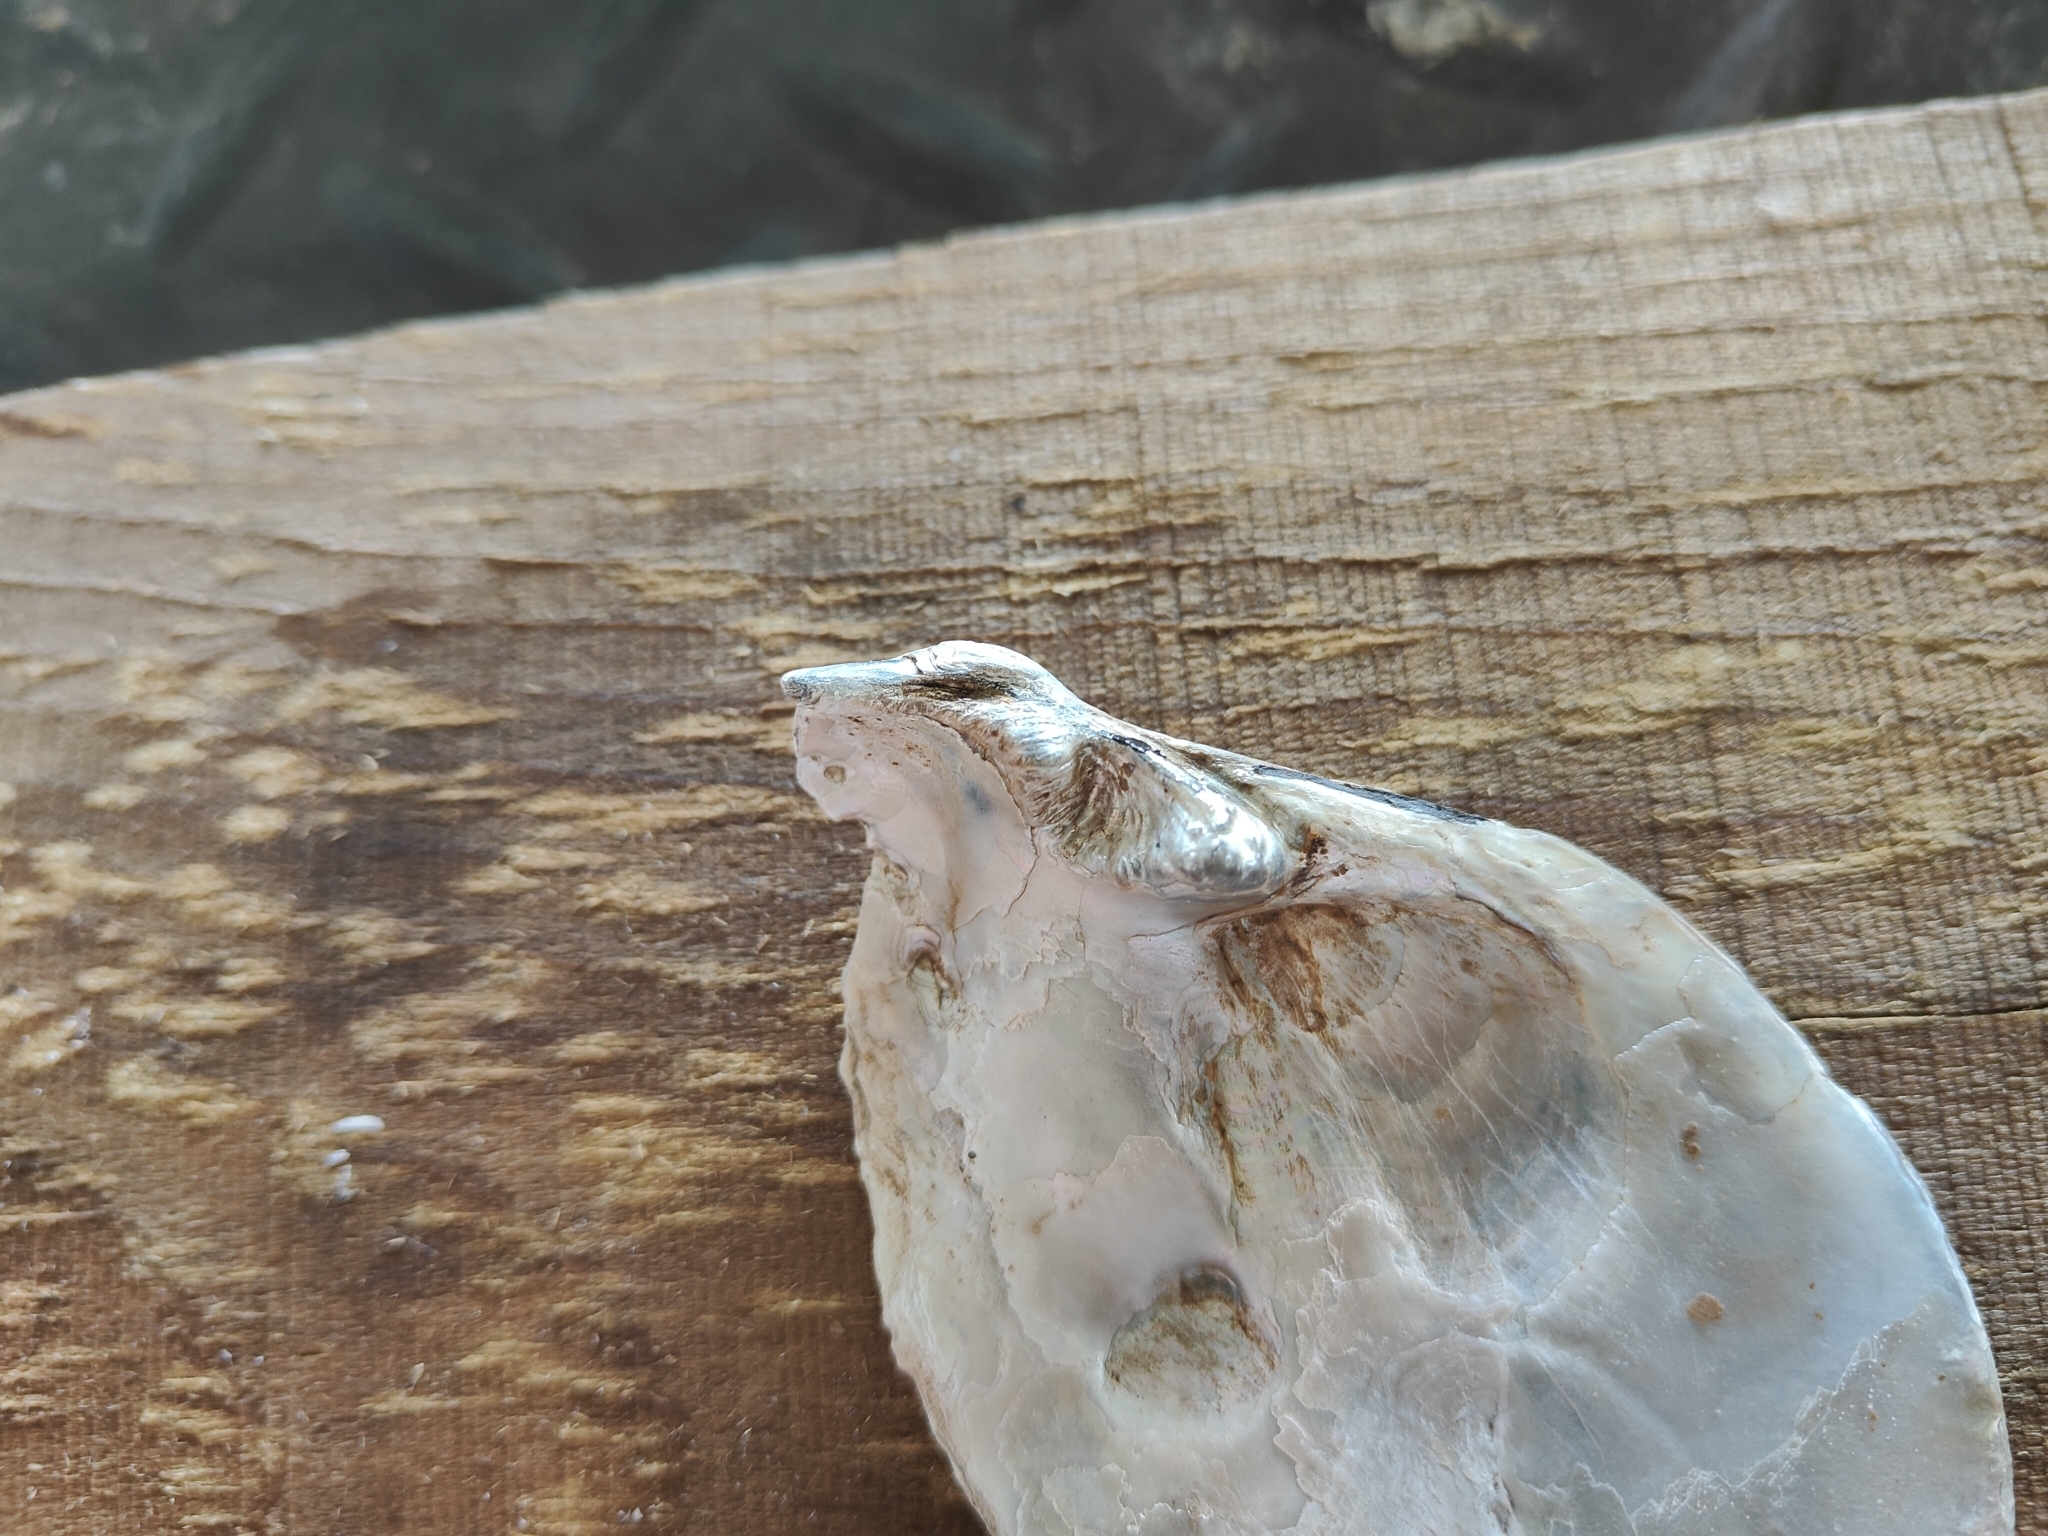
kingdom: Animalia
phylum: Mollusca
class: Bivalvia
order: Unionida
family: Unionidae
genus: Lasmigona
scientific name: Lasmigona complanata
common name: White heelsplitter
